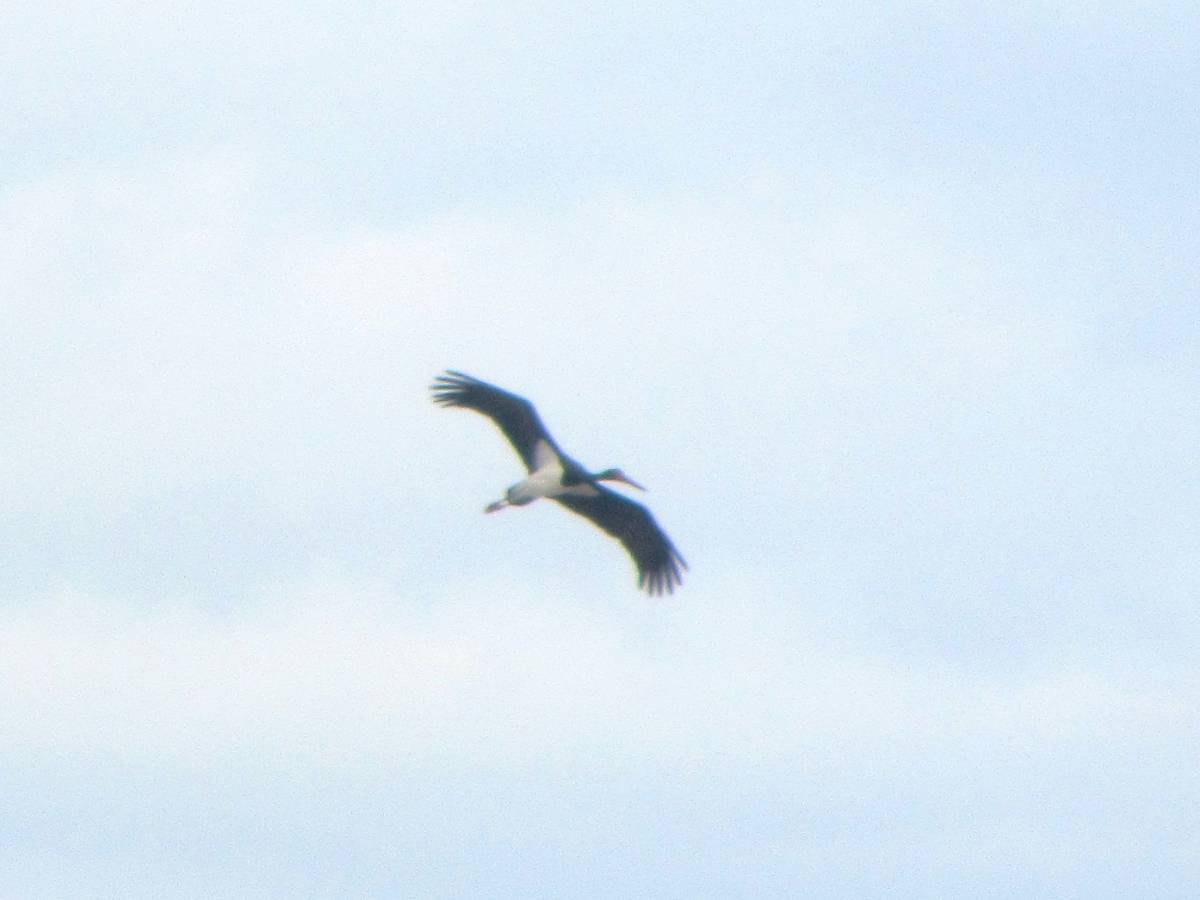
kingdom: Animalia
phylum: Chordata
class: Aves
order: Ciconiiformes
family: Ciconiidae
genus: Ciconia
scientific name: Ciconia nigra
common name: Black stork
